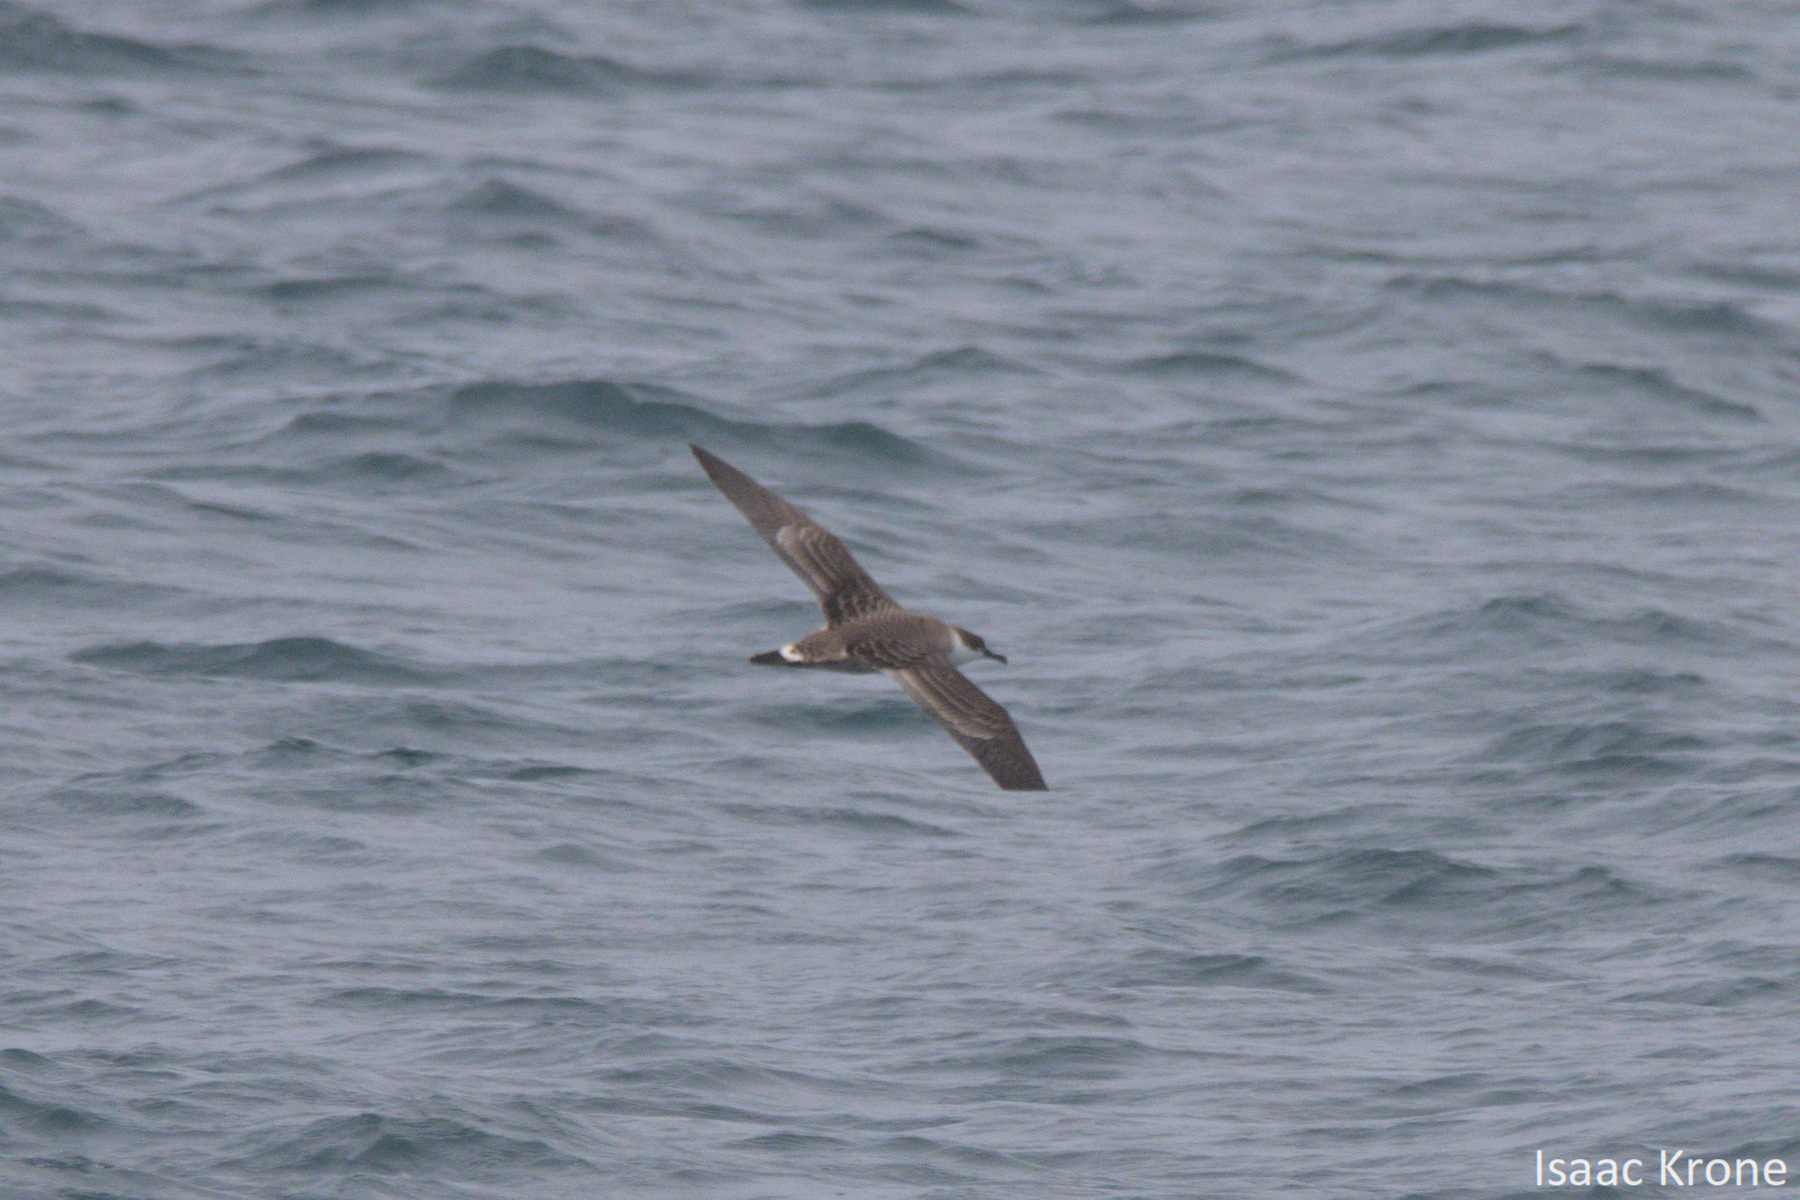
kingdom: Animalia
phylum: Chordata
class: Aves
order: Procellariiformes
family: Procellariidae
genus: Puffinus
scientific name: Puffinus gravis
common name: Great shearwater
